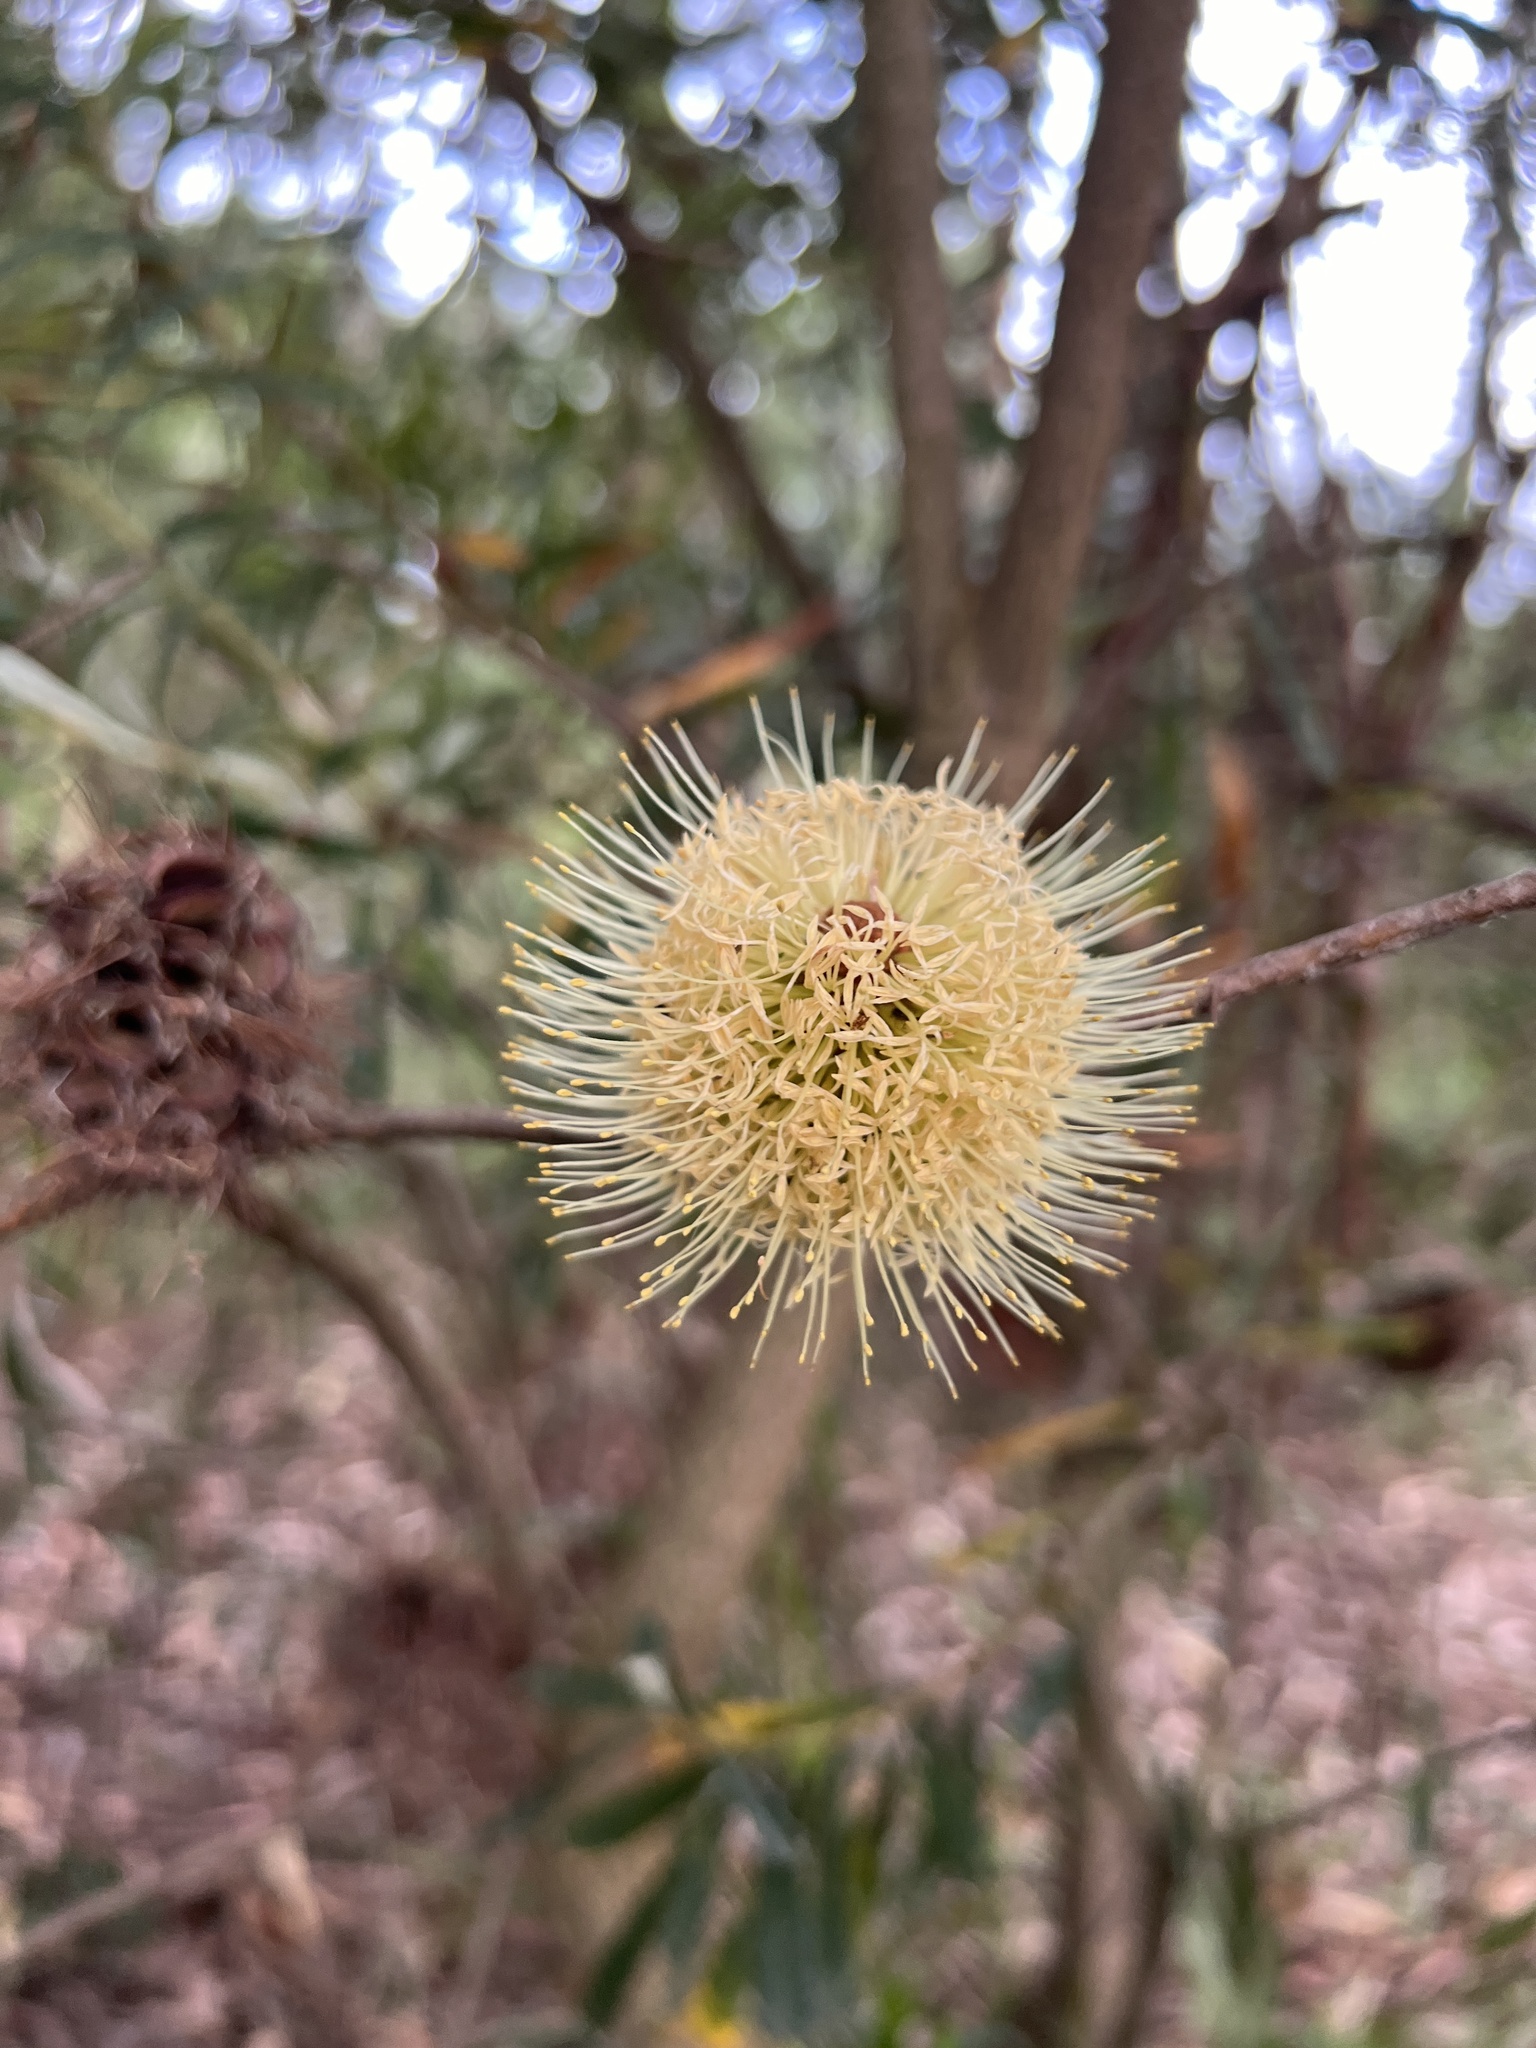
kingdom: Plantae
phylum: Tracheophyta
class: Magnoliopsida
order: Proteales
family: Proteaceae
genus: Banksia
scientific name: Banksia marginata
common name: Silver banksia
